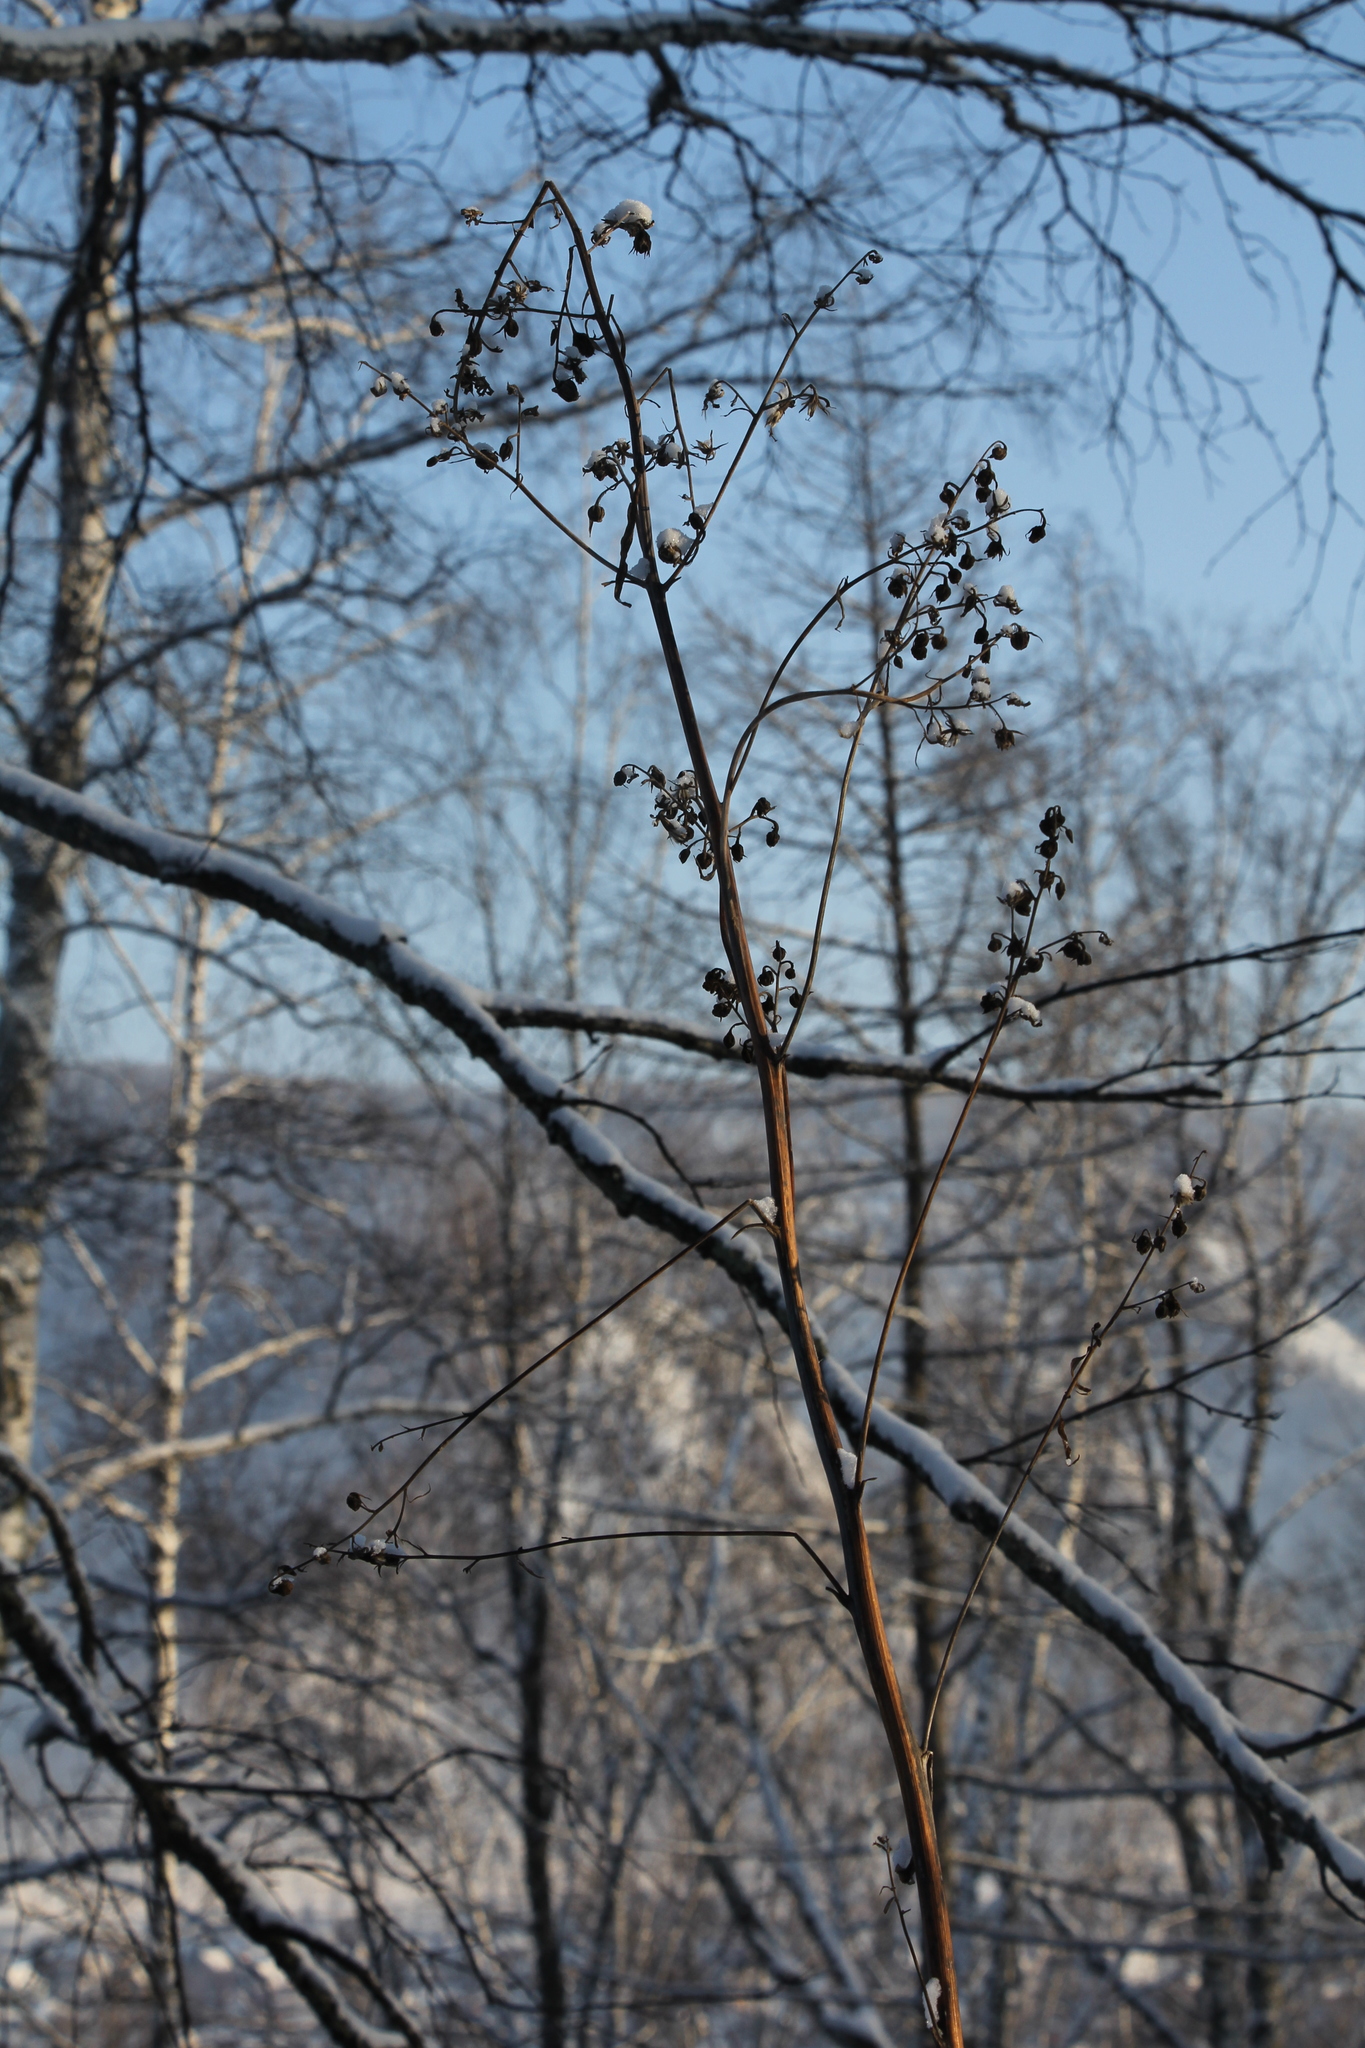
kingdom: Plantae
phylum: Tracheophyta
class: Magnoliopsida
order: Asterales
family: Asteraceae
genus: Parasenecio
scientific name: Parasenecio hastatus
